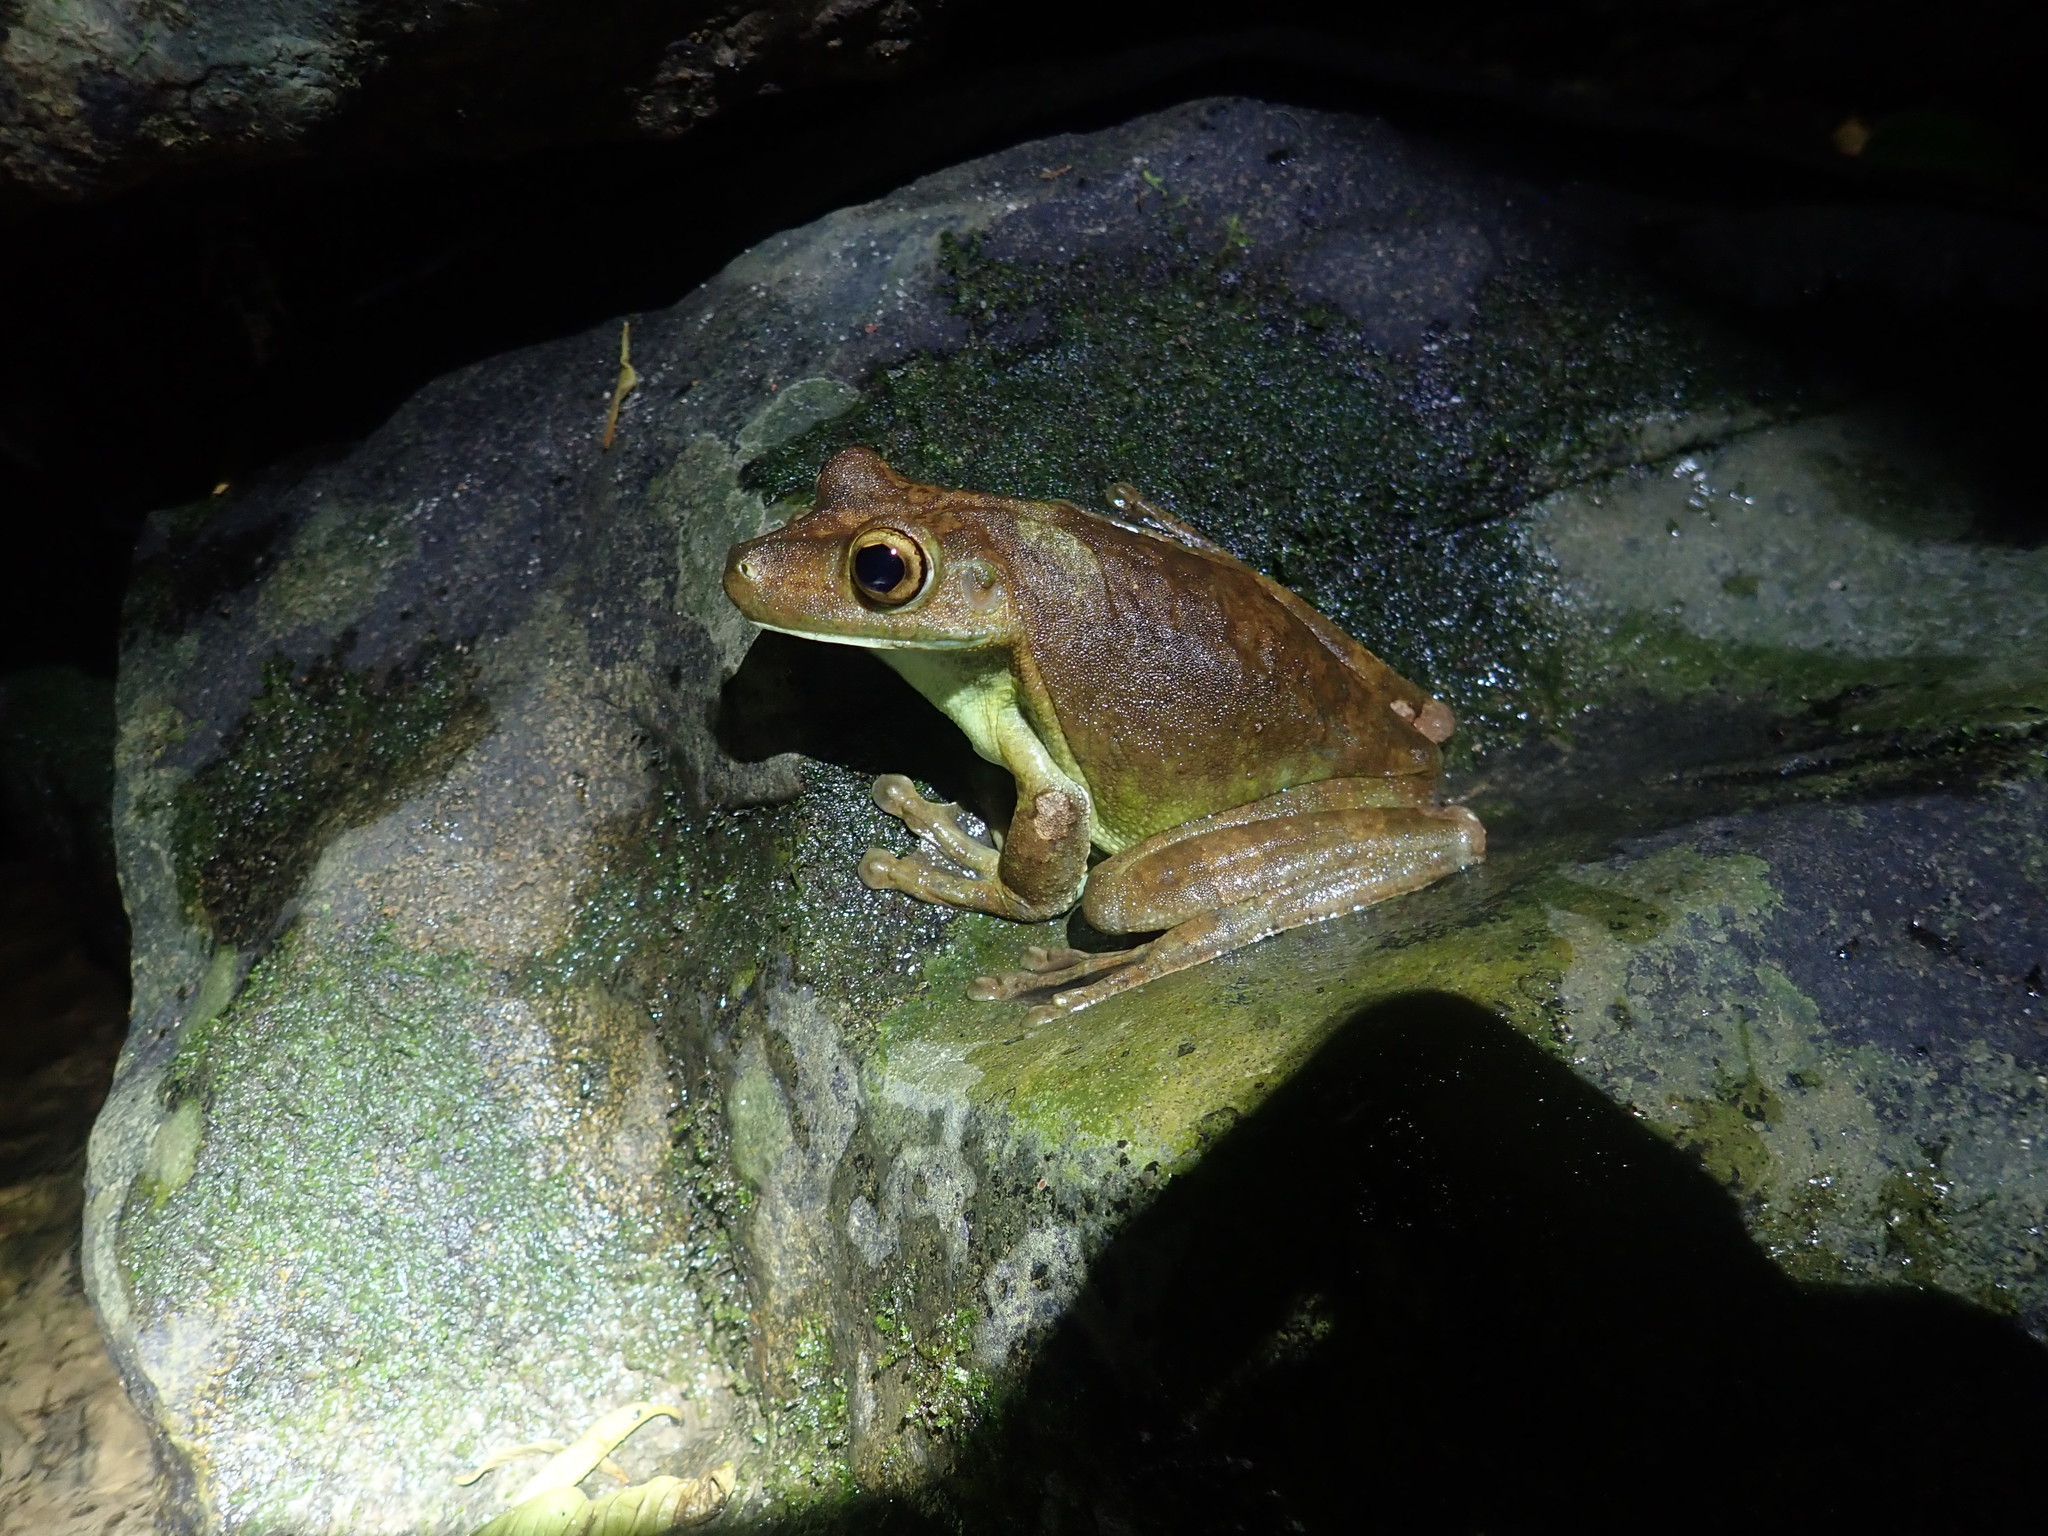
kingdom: Animalia
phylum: Chordata
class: Amphibia
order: Anura
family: Hylidae
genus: Boana
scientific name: Boana boans
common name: Giant gladiator treefrog
